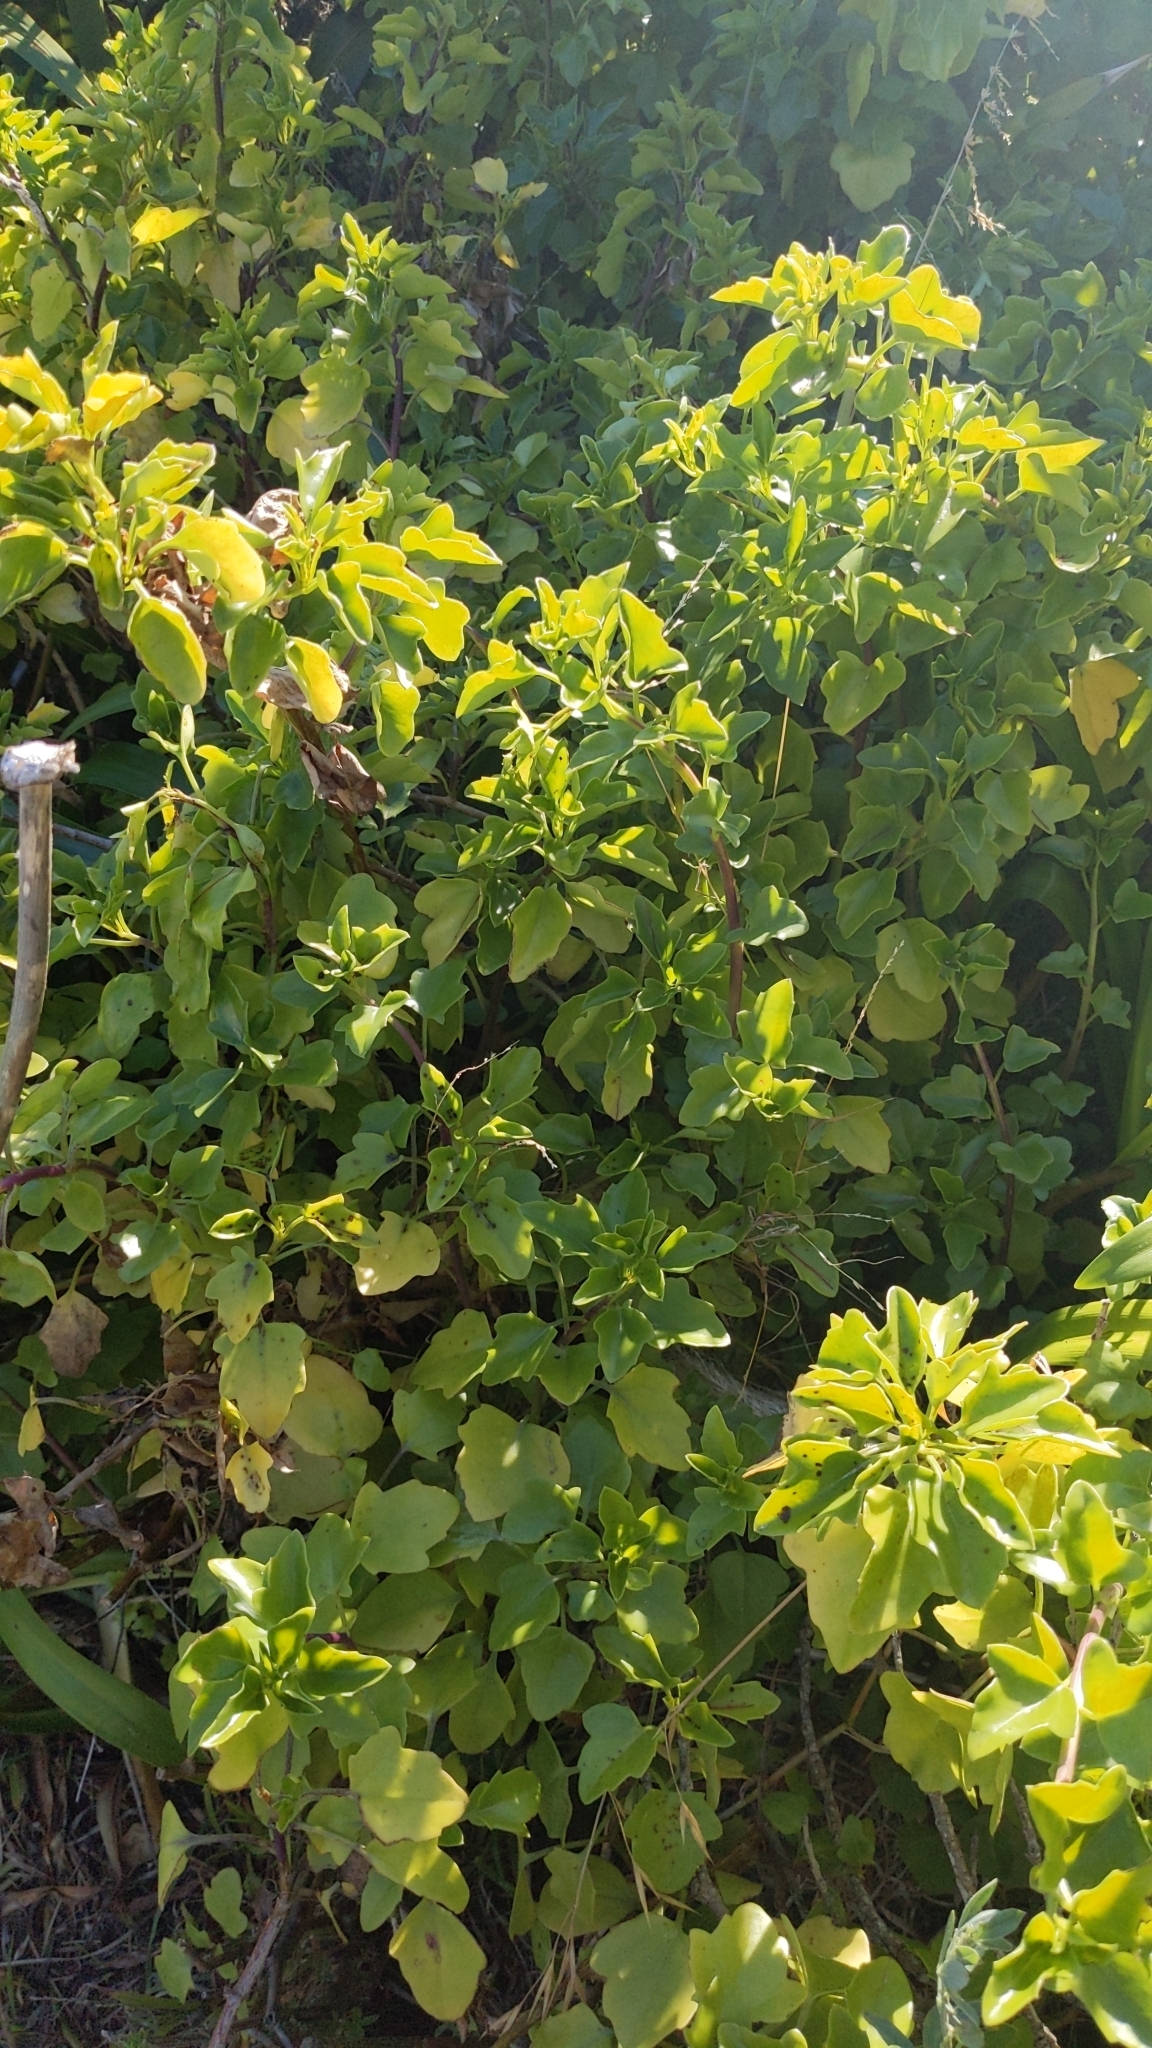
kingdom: Plantae
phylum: Tracheophyta
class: Magnoliopsida
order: Asterales
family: Asteraceae
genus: Senecio
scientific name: Senecio angulatus
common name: Climbing groundsel
